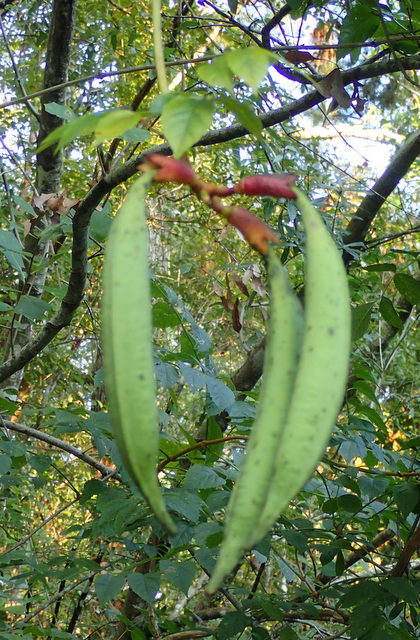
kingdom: Plantae
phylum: Tracheophyta
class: Magnoliopsida
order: Lamiales
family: Bignoniaceae
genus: Campsis
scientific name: Campsis radicans
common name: Trumpet-creeper
